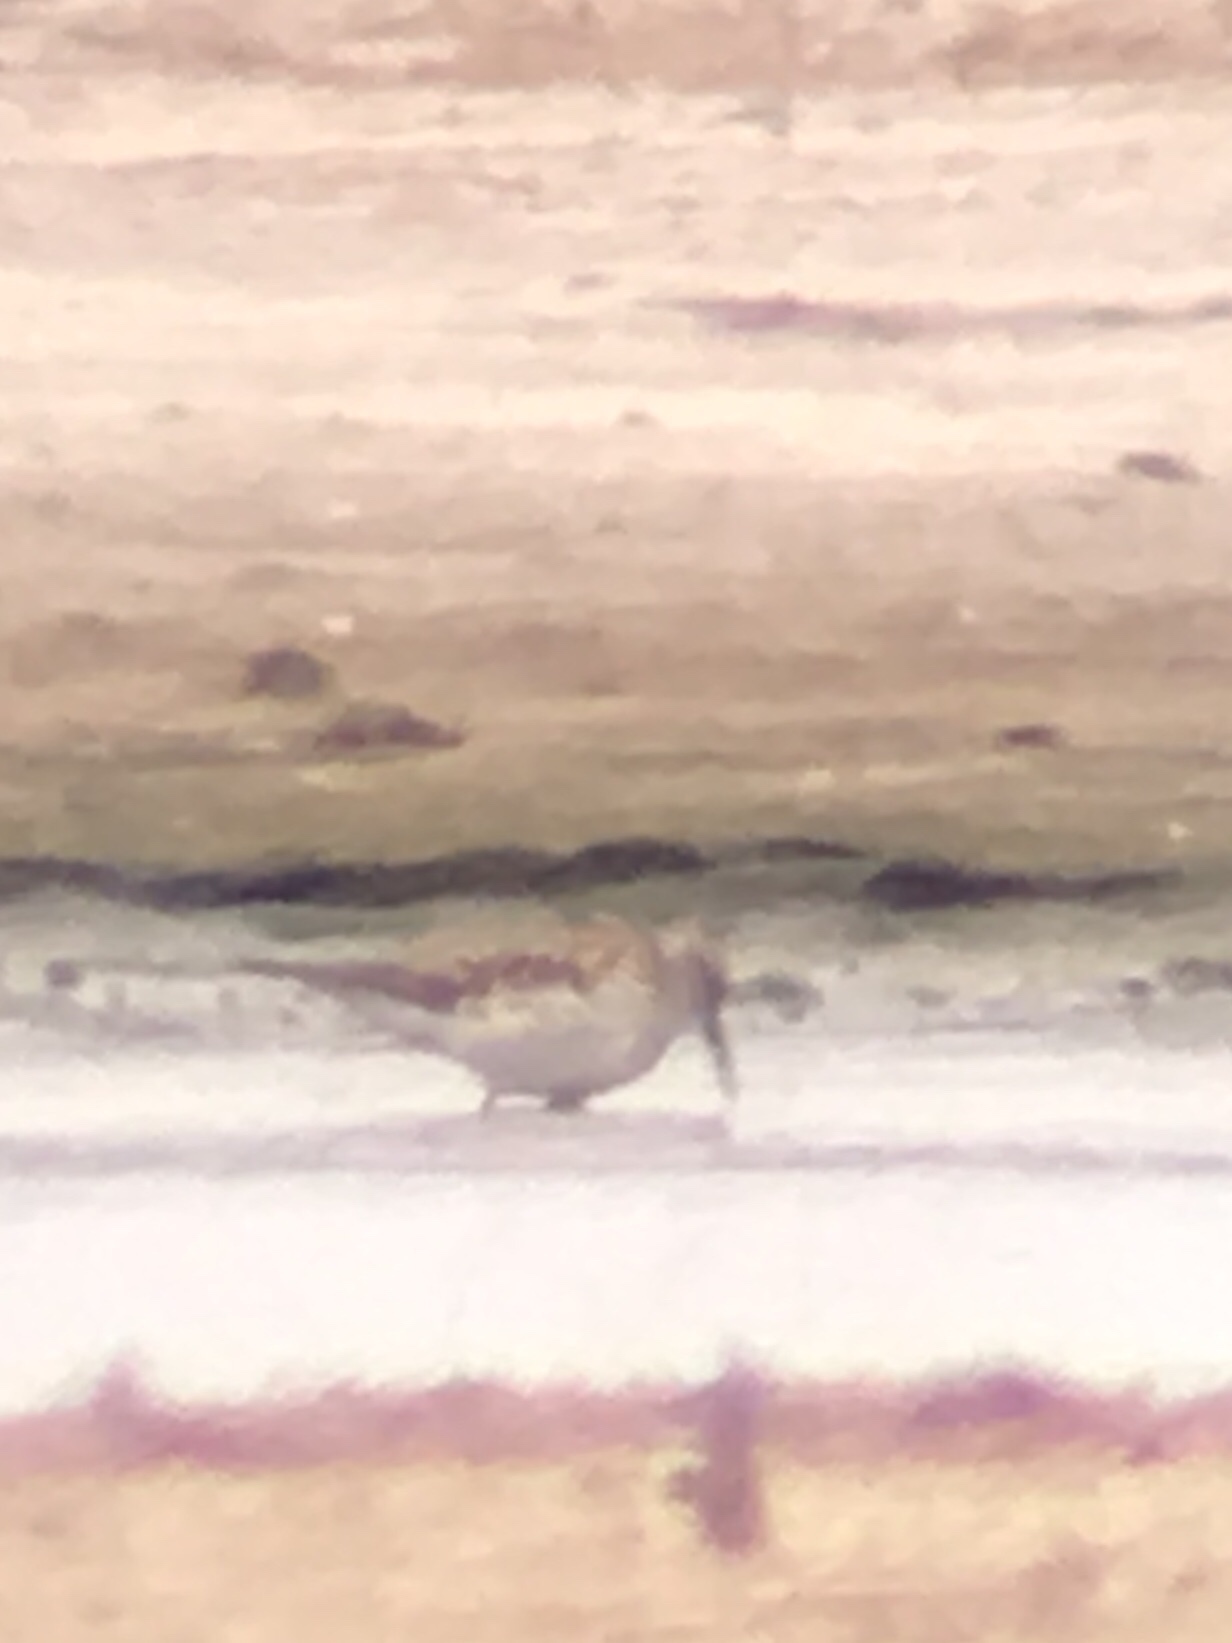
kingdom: Animalia
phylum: Chordata
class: Aves
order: Charadriiformes
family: Scolopacidae
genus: Calidris
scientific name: Calidris fuscicollis
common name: White-rumped sandpiper
